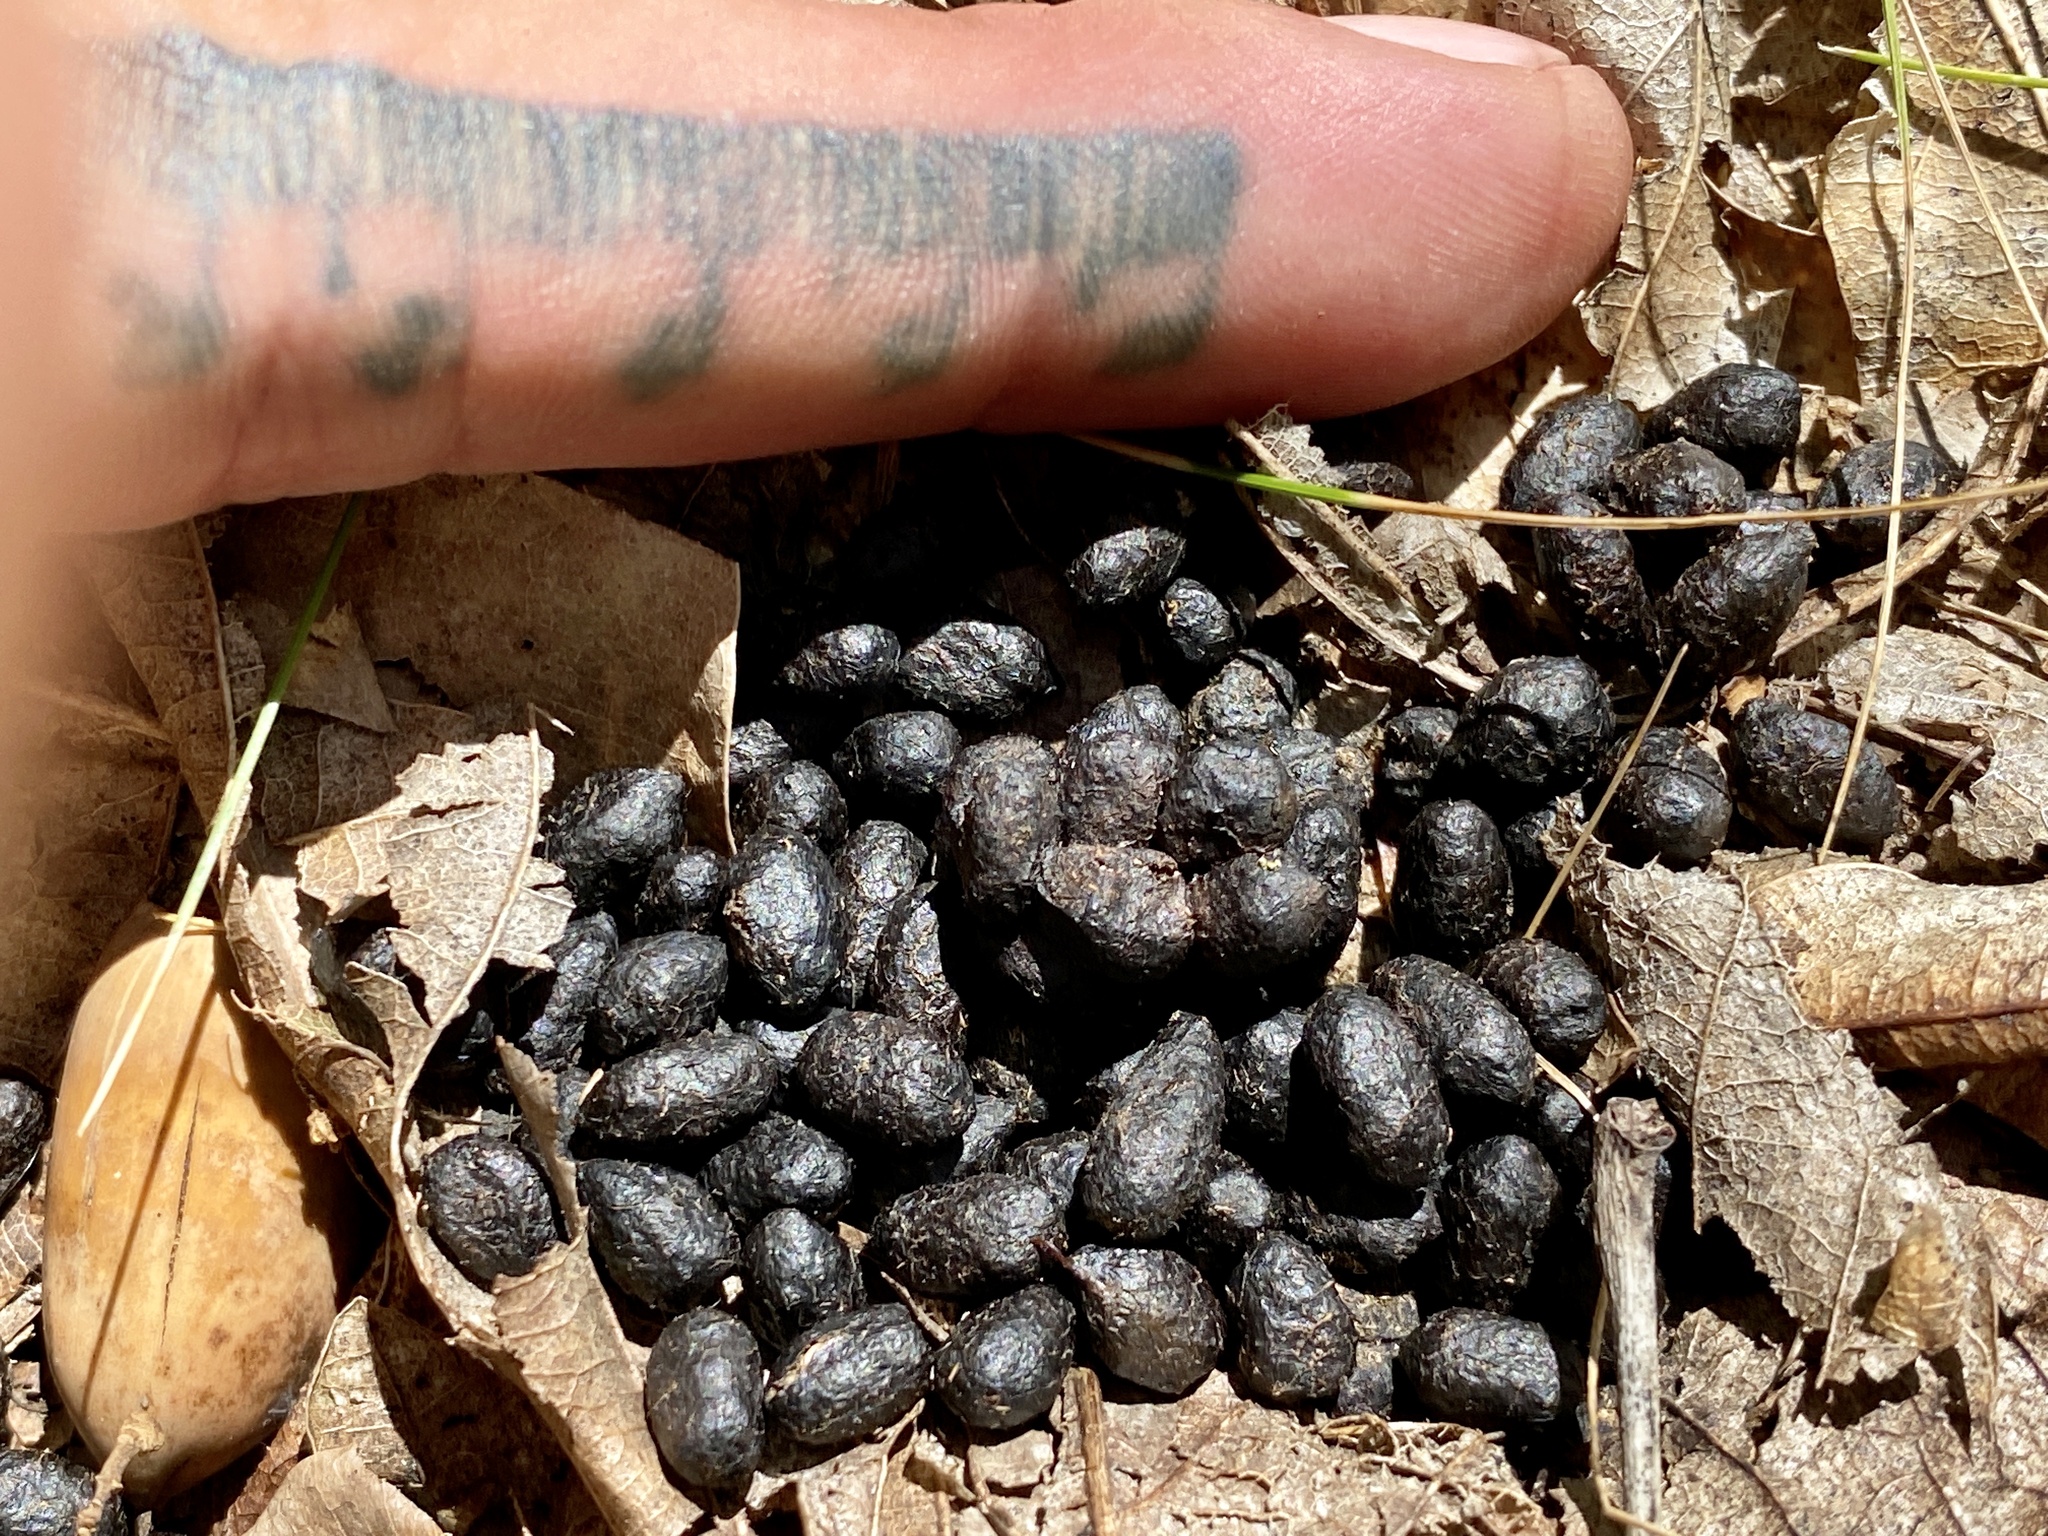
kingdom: Animalia
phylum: Chordata
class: Mammalia
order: Artiodactyla
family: Cervidae
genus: Odocoileus
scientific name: Odocoileus virginianus
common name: White-tailed deer
